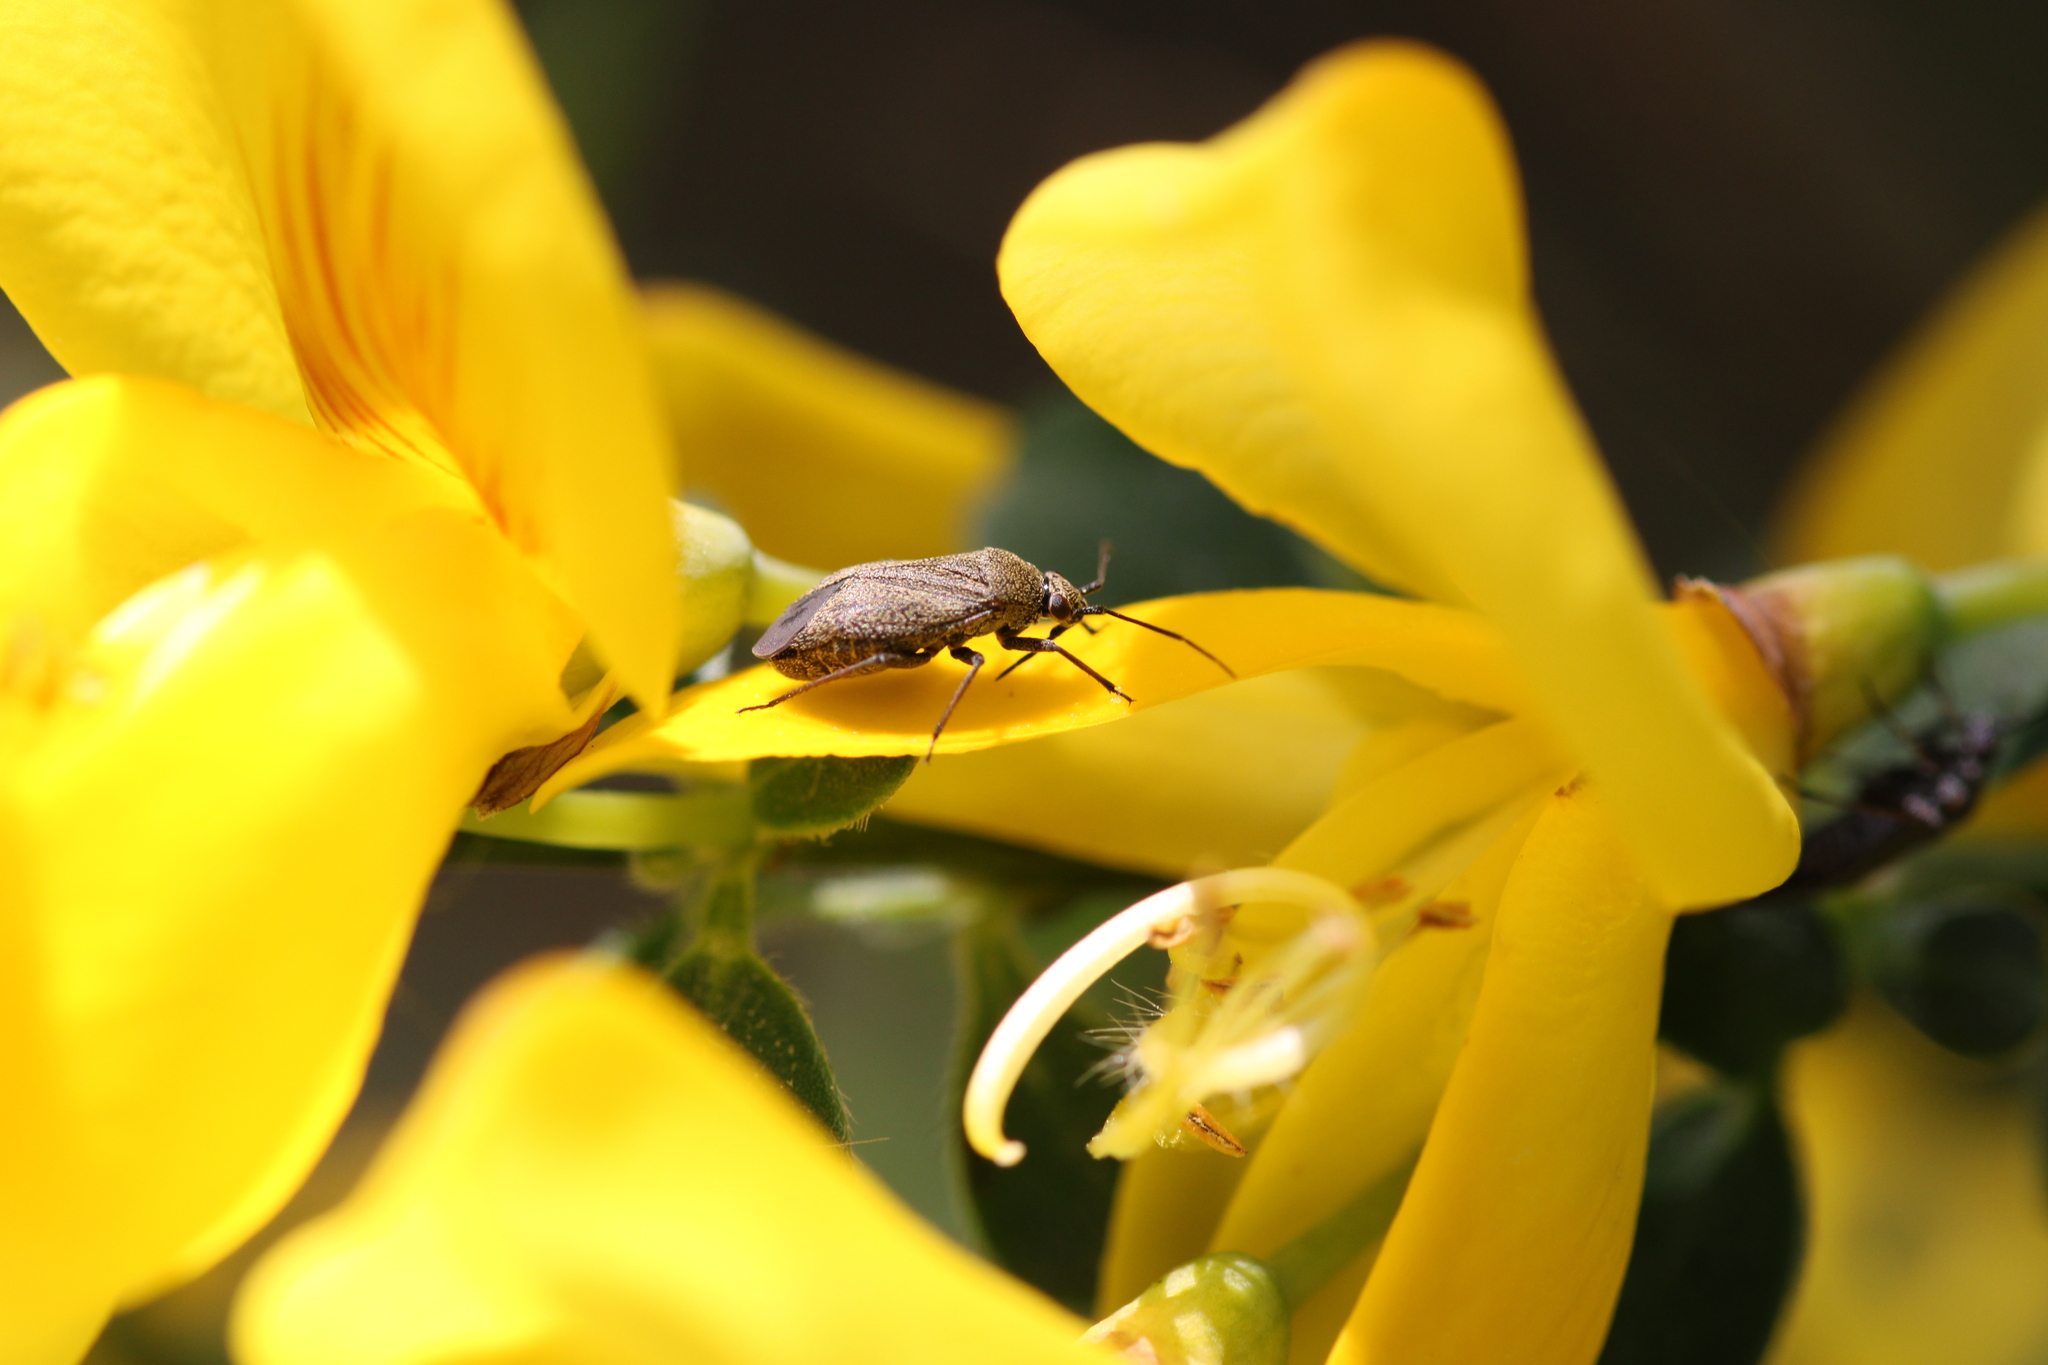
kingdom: Animalia
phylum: Arthropoda
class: Insecta
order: Hemiptera
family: Miridae
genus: Heterocordylus
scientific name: Heterocordylus tibialis
